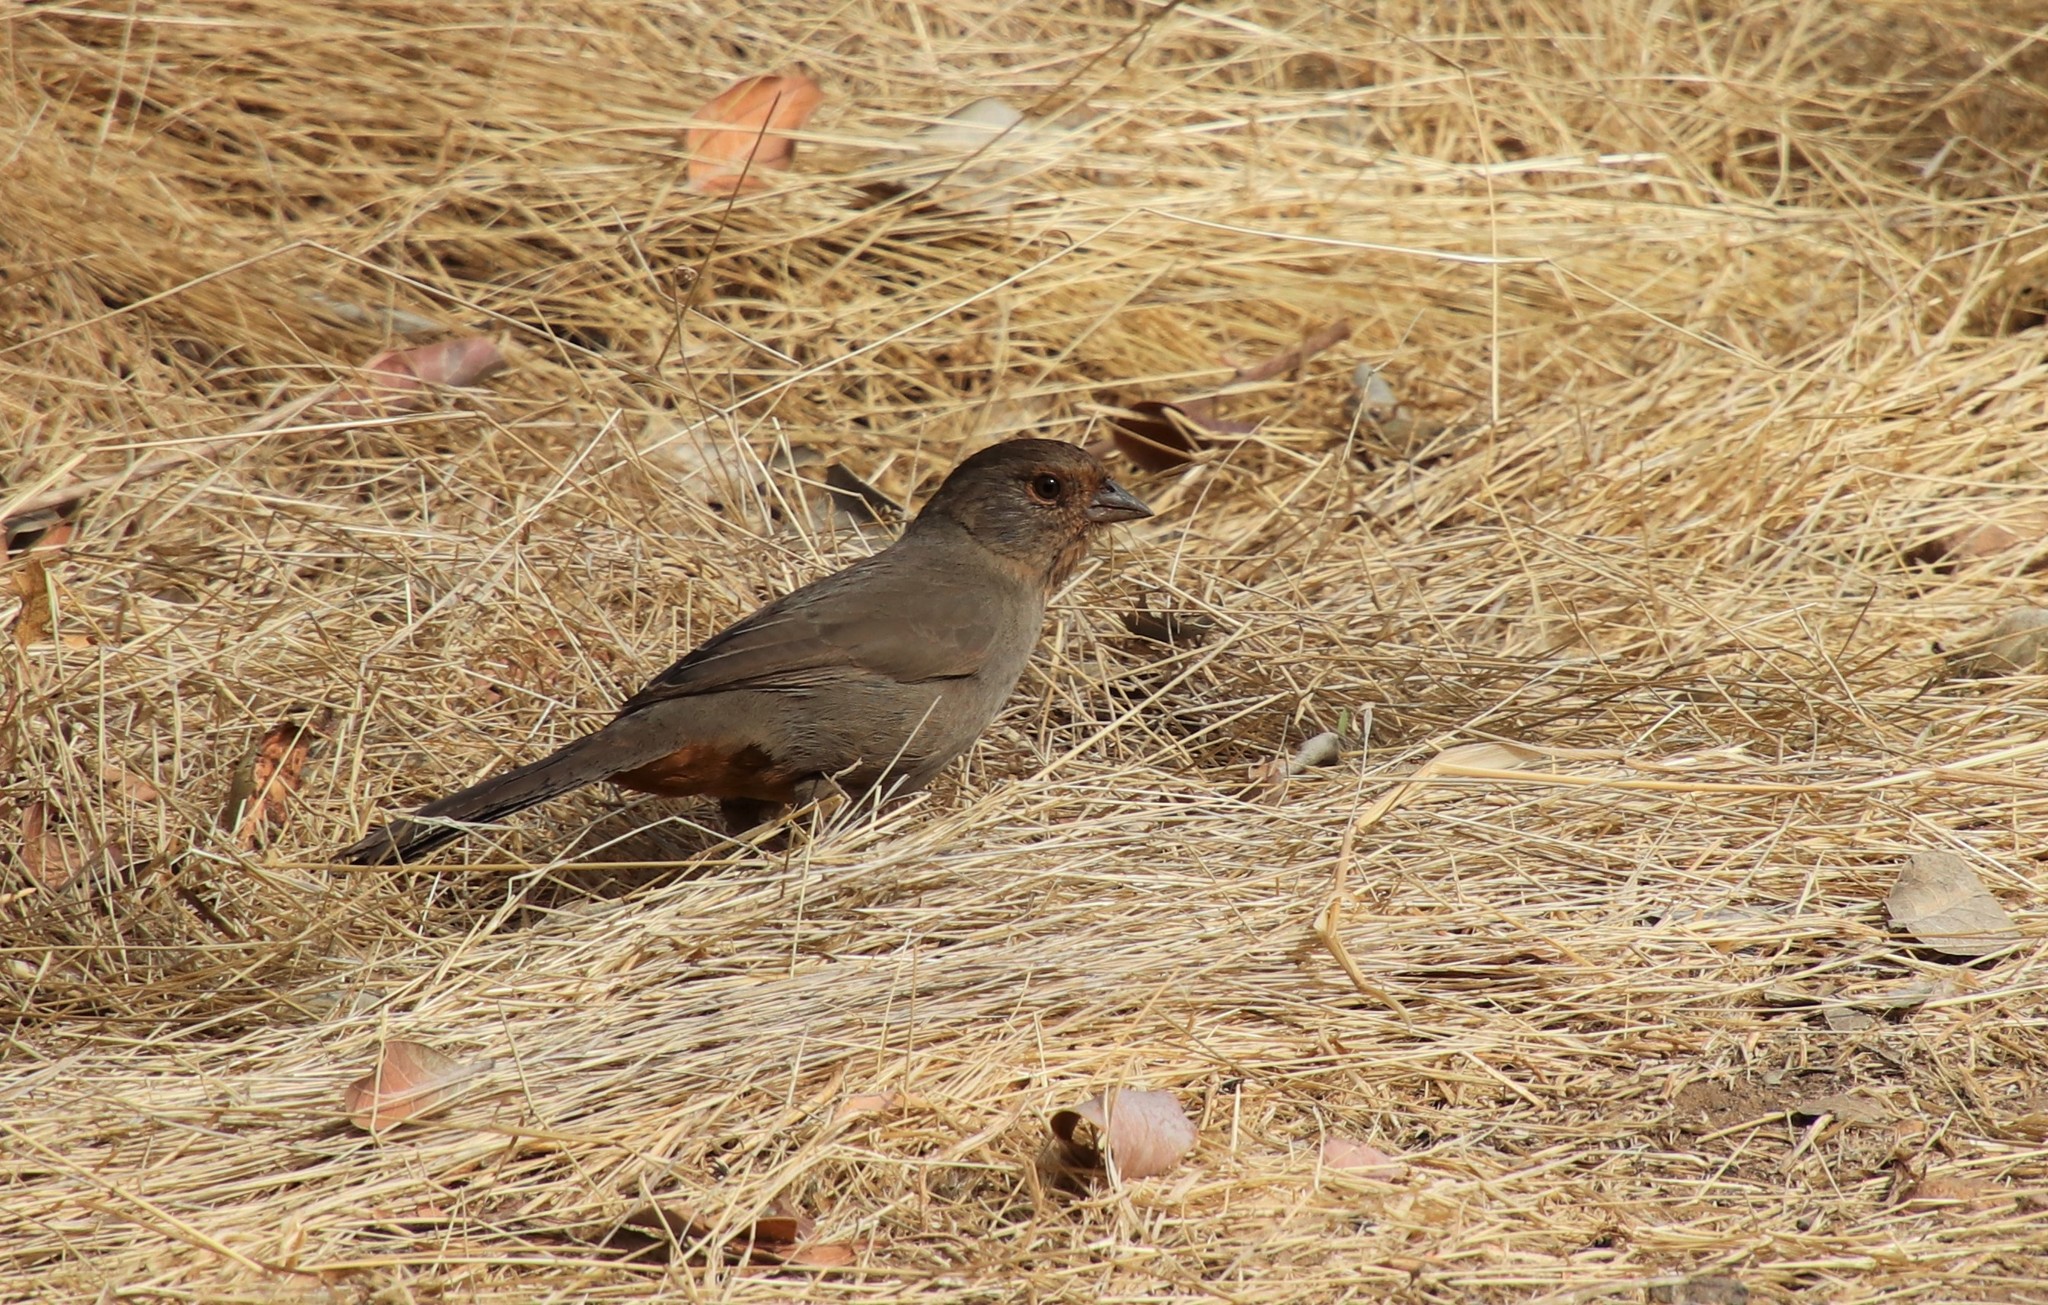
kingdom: Animalia
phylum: Chordata
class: Aves
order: Passeriformes
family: Passerellidae
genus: Melozone
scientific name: Melozone crissalis
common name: California towhee
